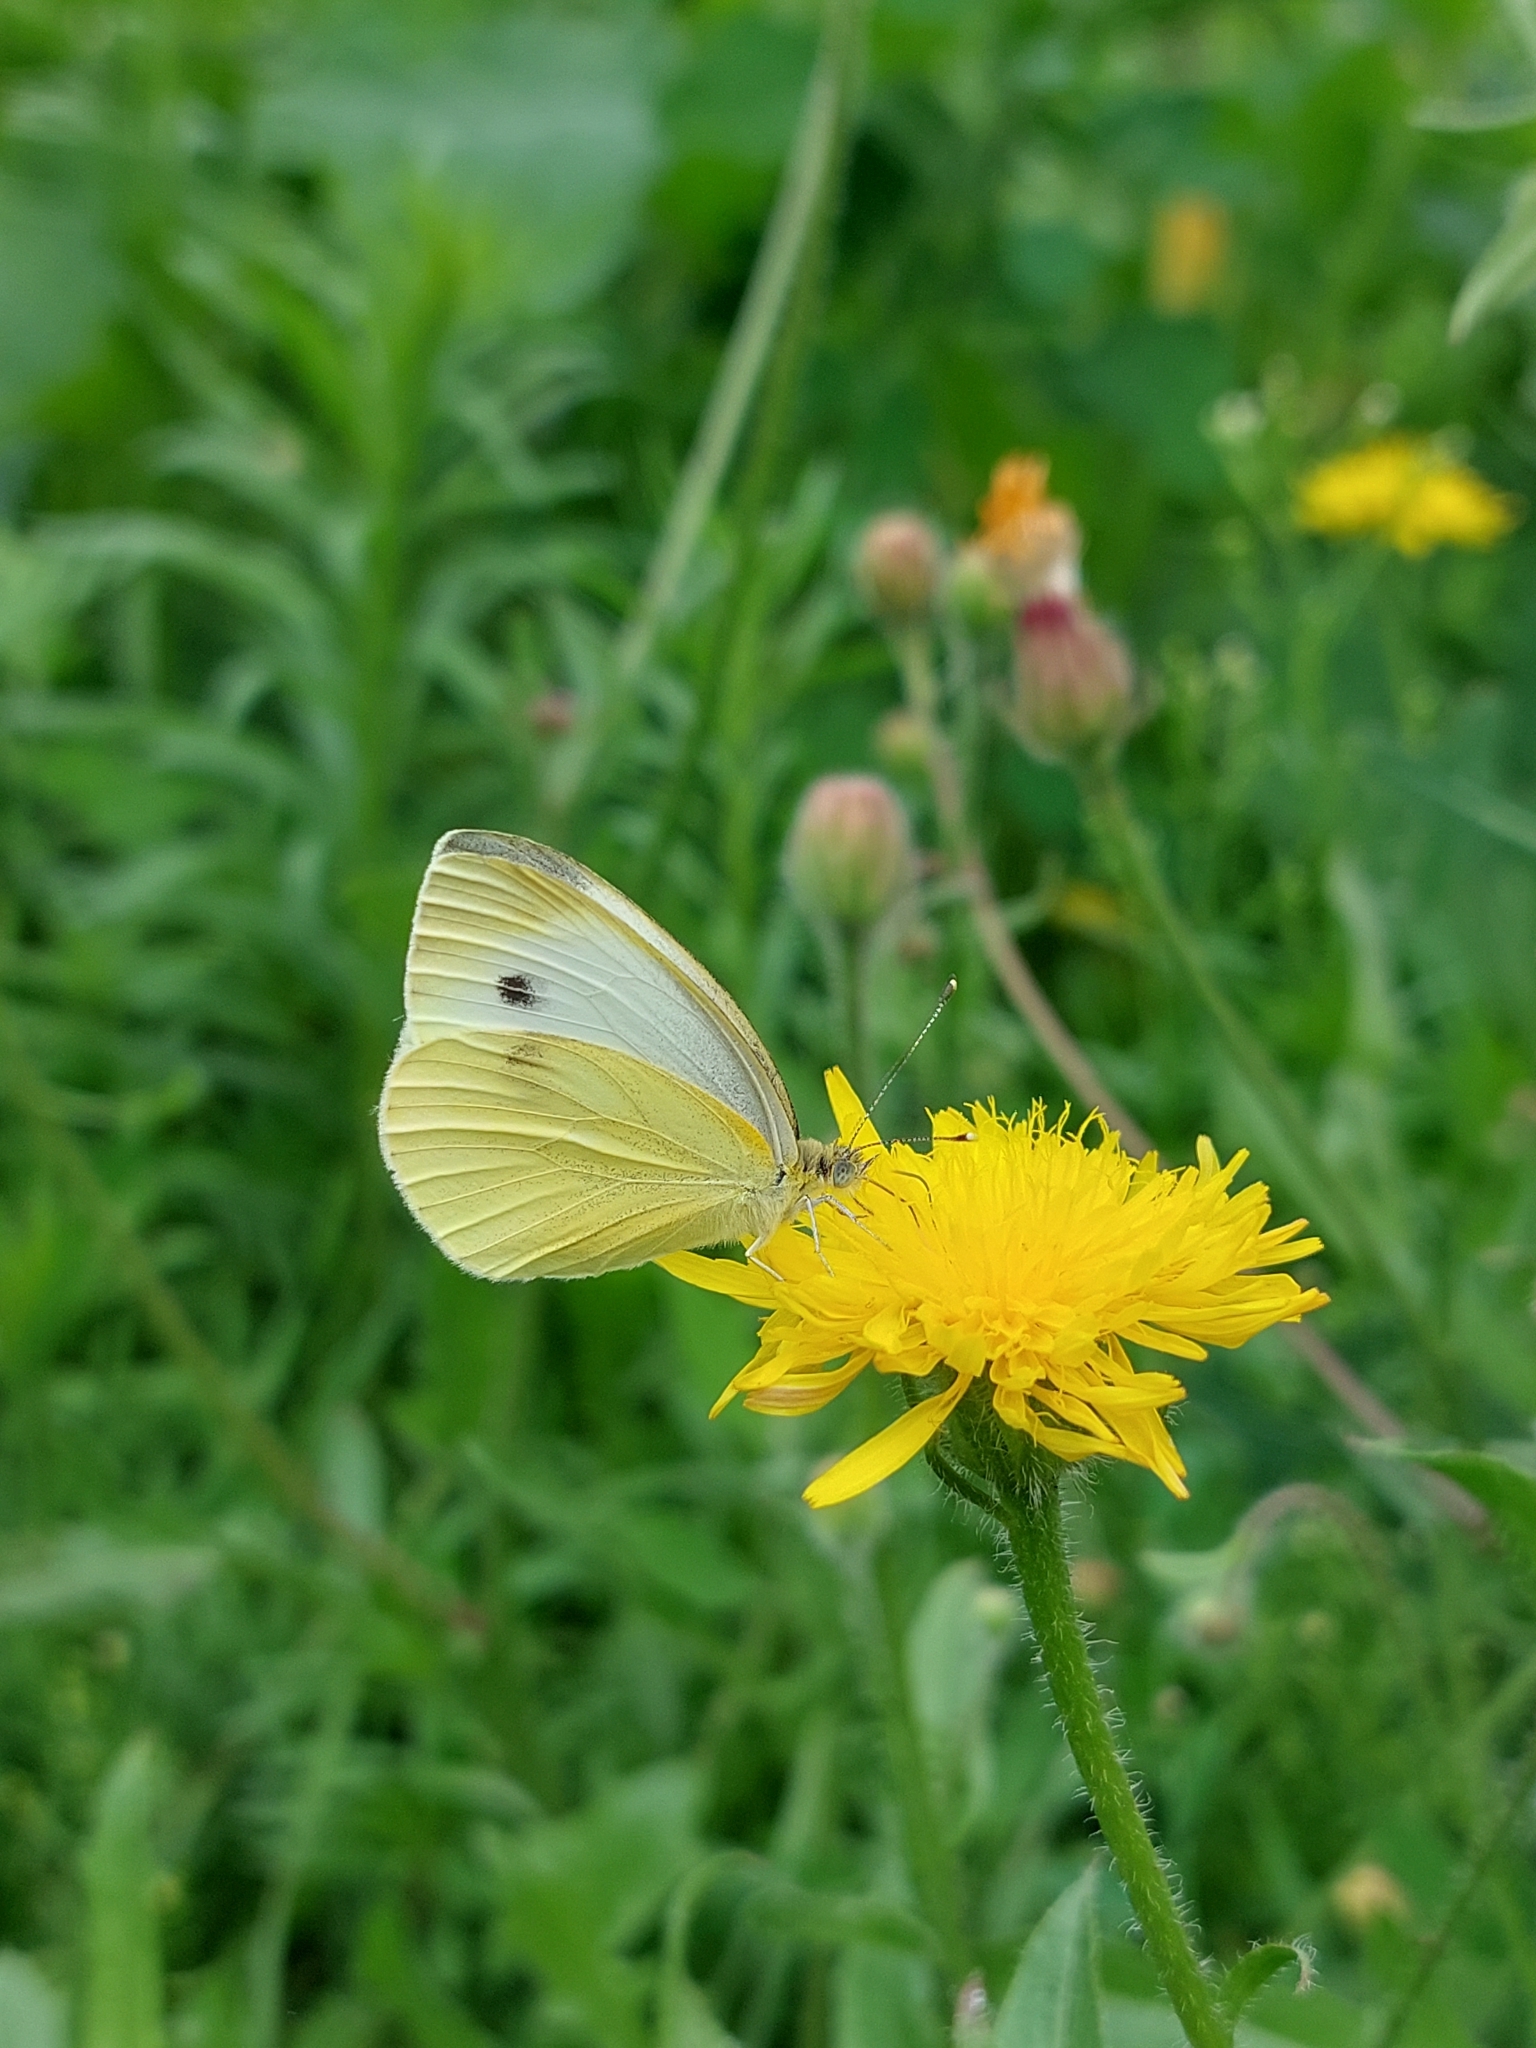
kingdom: Animalia
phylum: Arthropoda
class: Insecta
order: Lepidoptera
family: Pieridae
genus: Pieris
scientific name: Pieris napi
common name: Green-veined white
